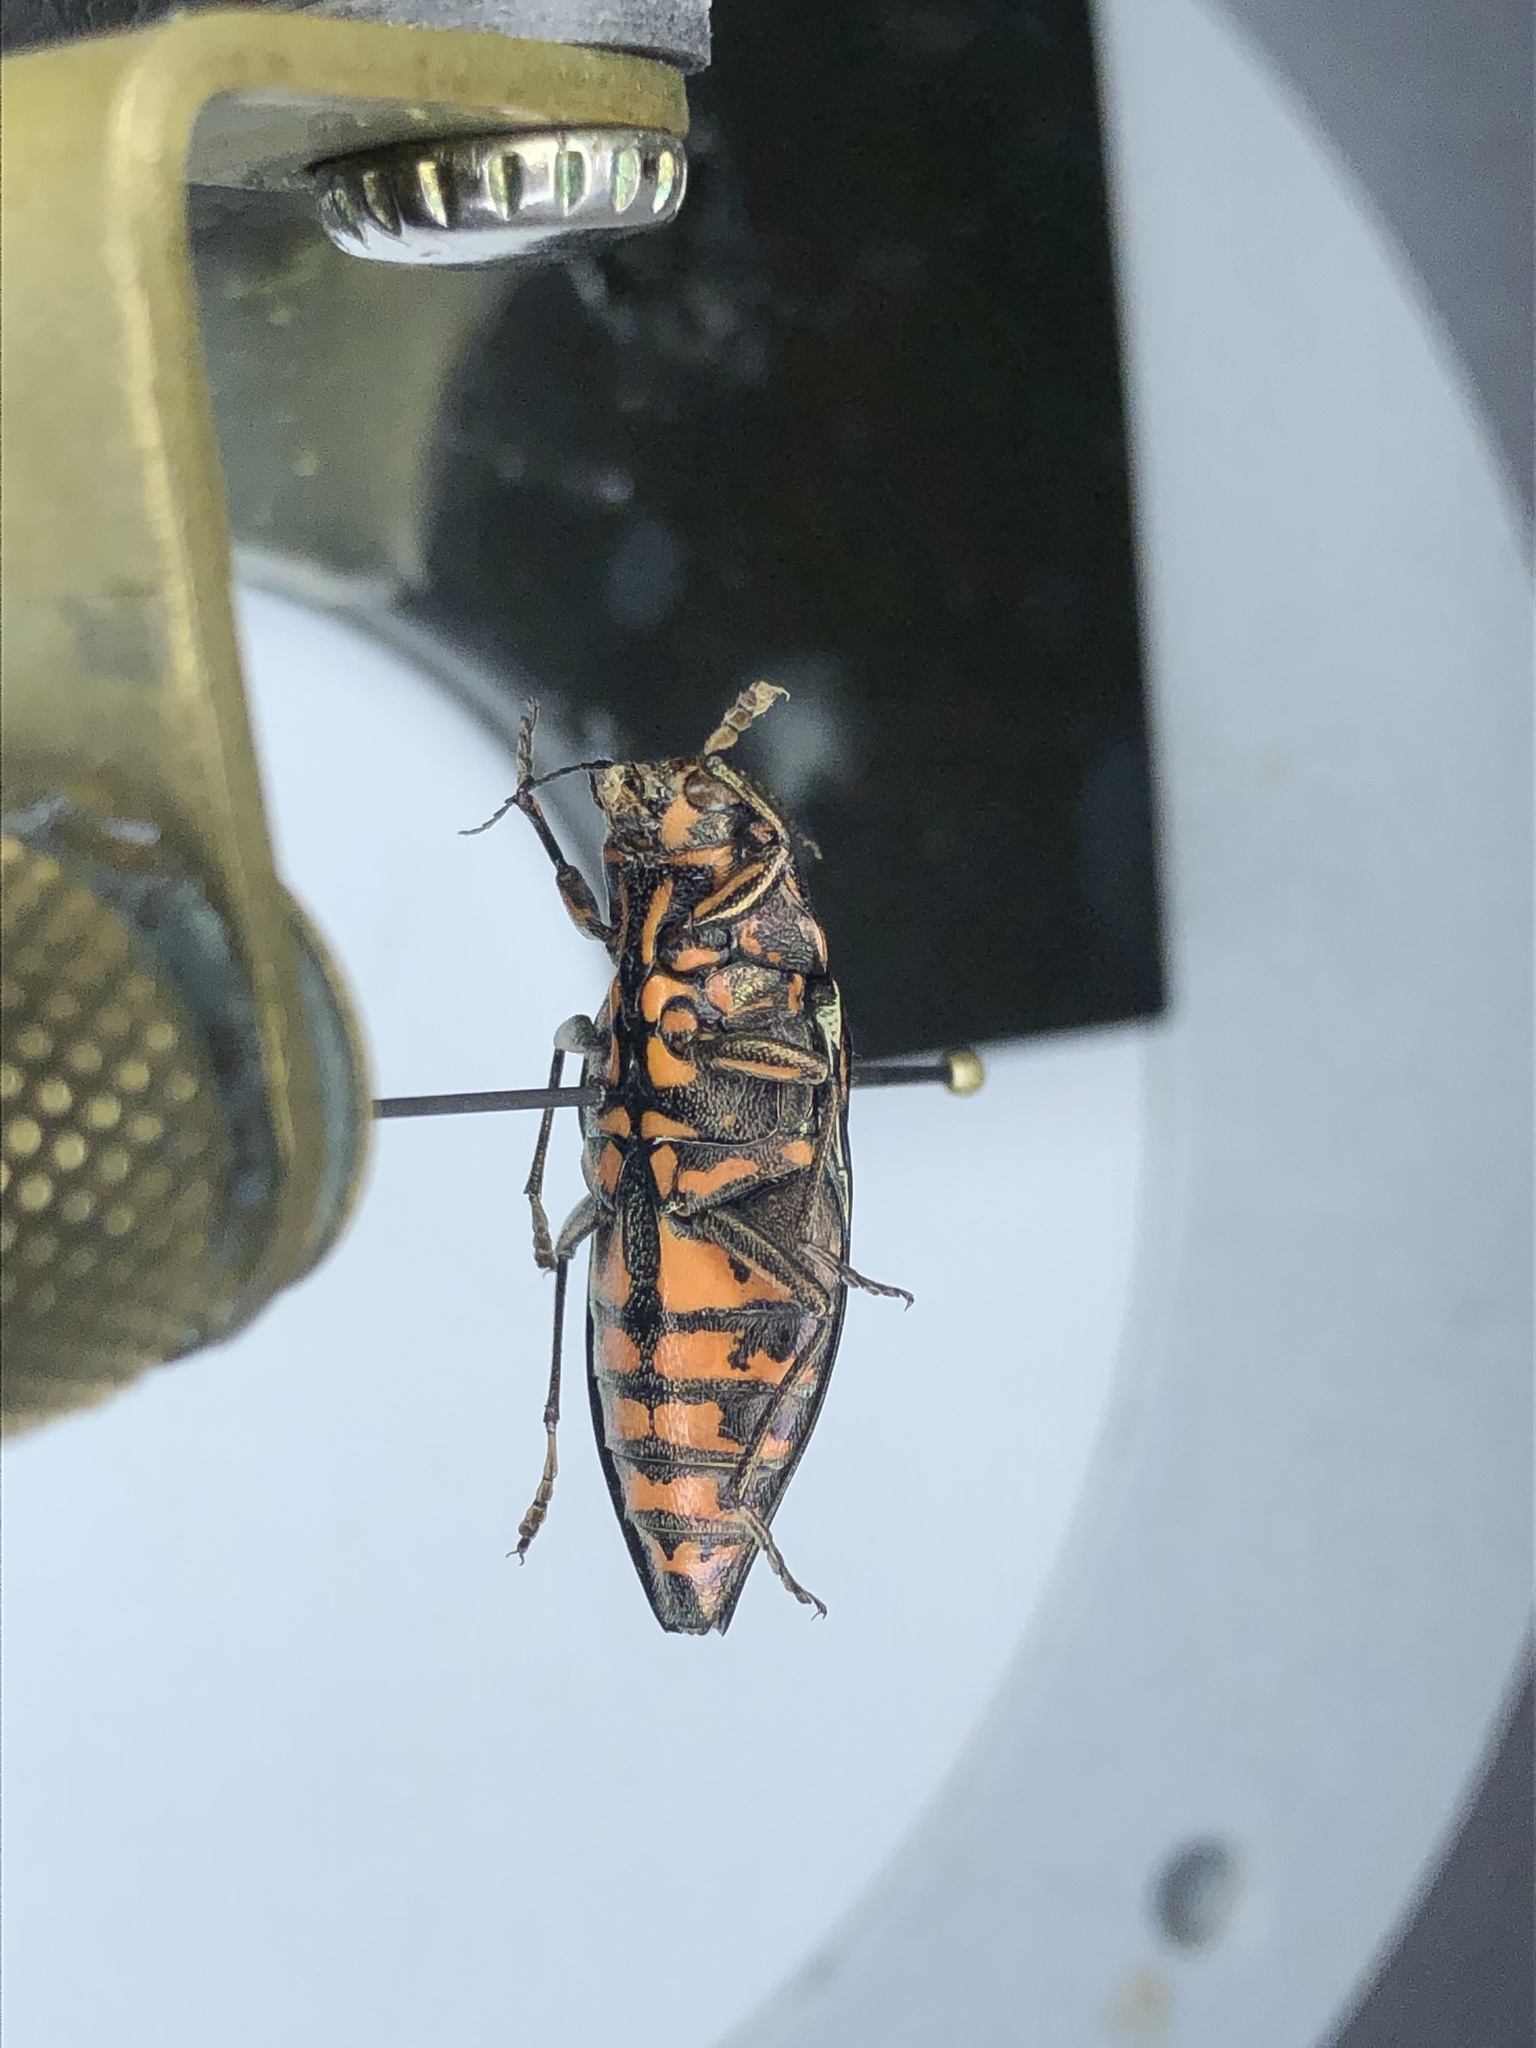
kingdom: Animalia
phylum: Arthropoda
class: Insecta
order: Coleoptera
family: Buprestidae
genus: Buprestis
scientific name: Buprestis consularis
